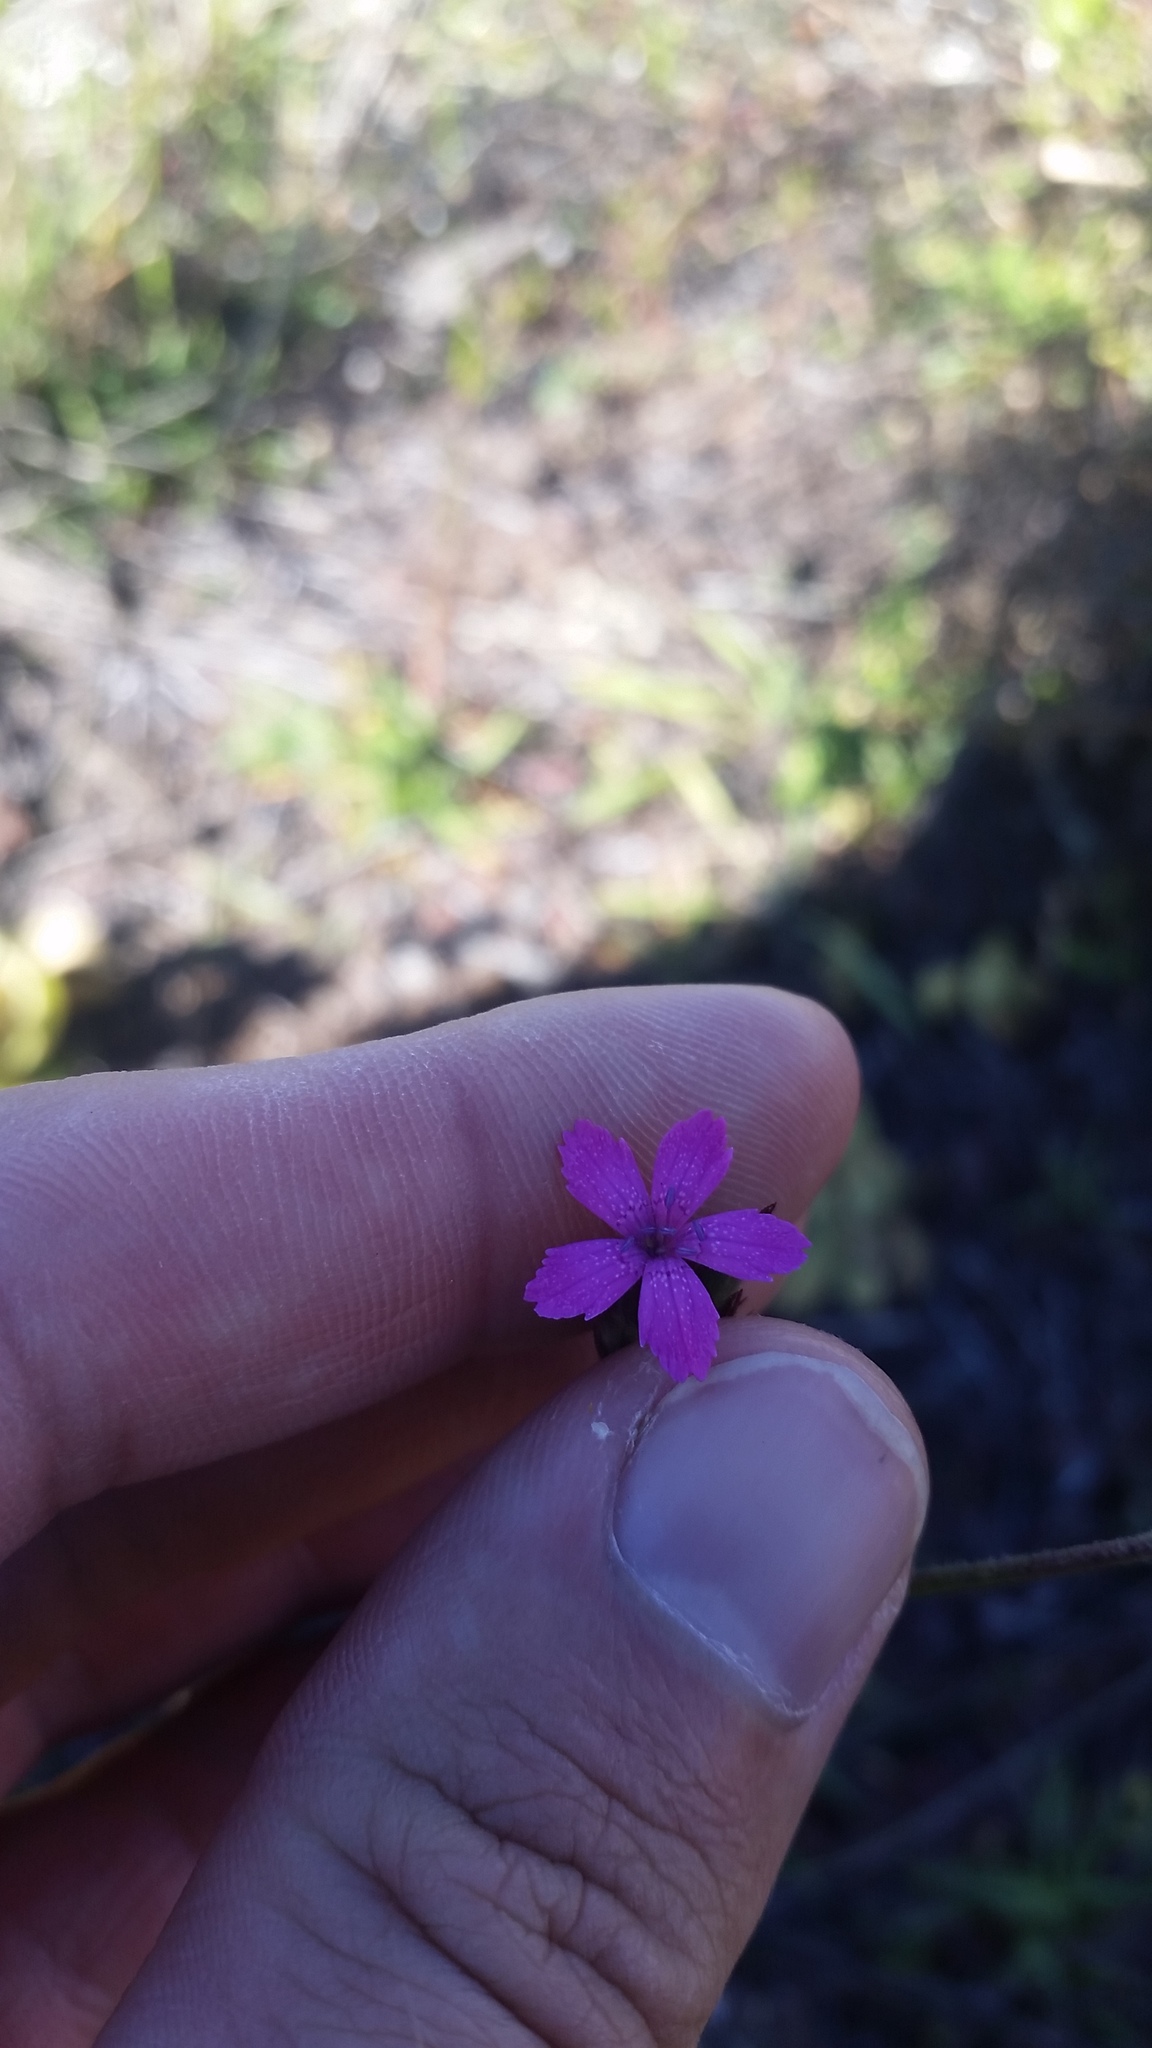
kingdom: Plantae
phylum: Tracheophyta
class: Magnoliopsida
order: Caryophyllales
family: Caryophyllaceae
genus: Dianthus
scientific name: Dianthus armeria
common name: Deptford pink
